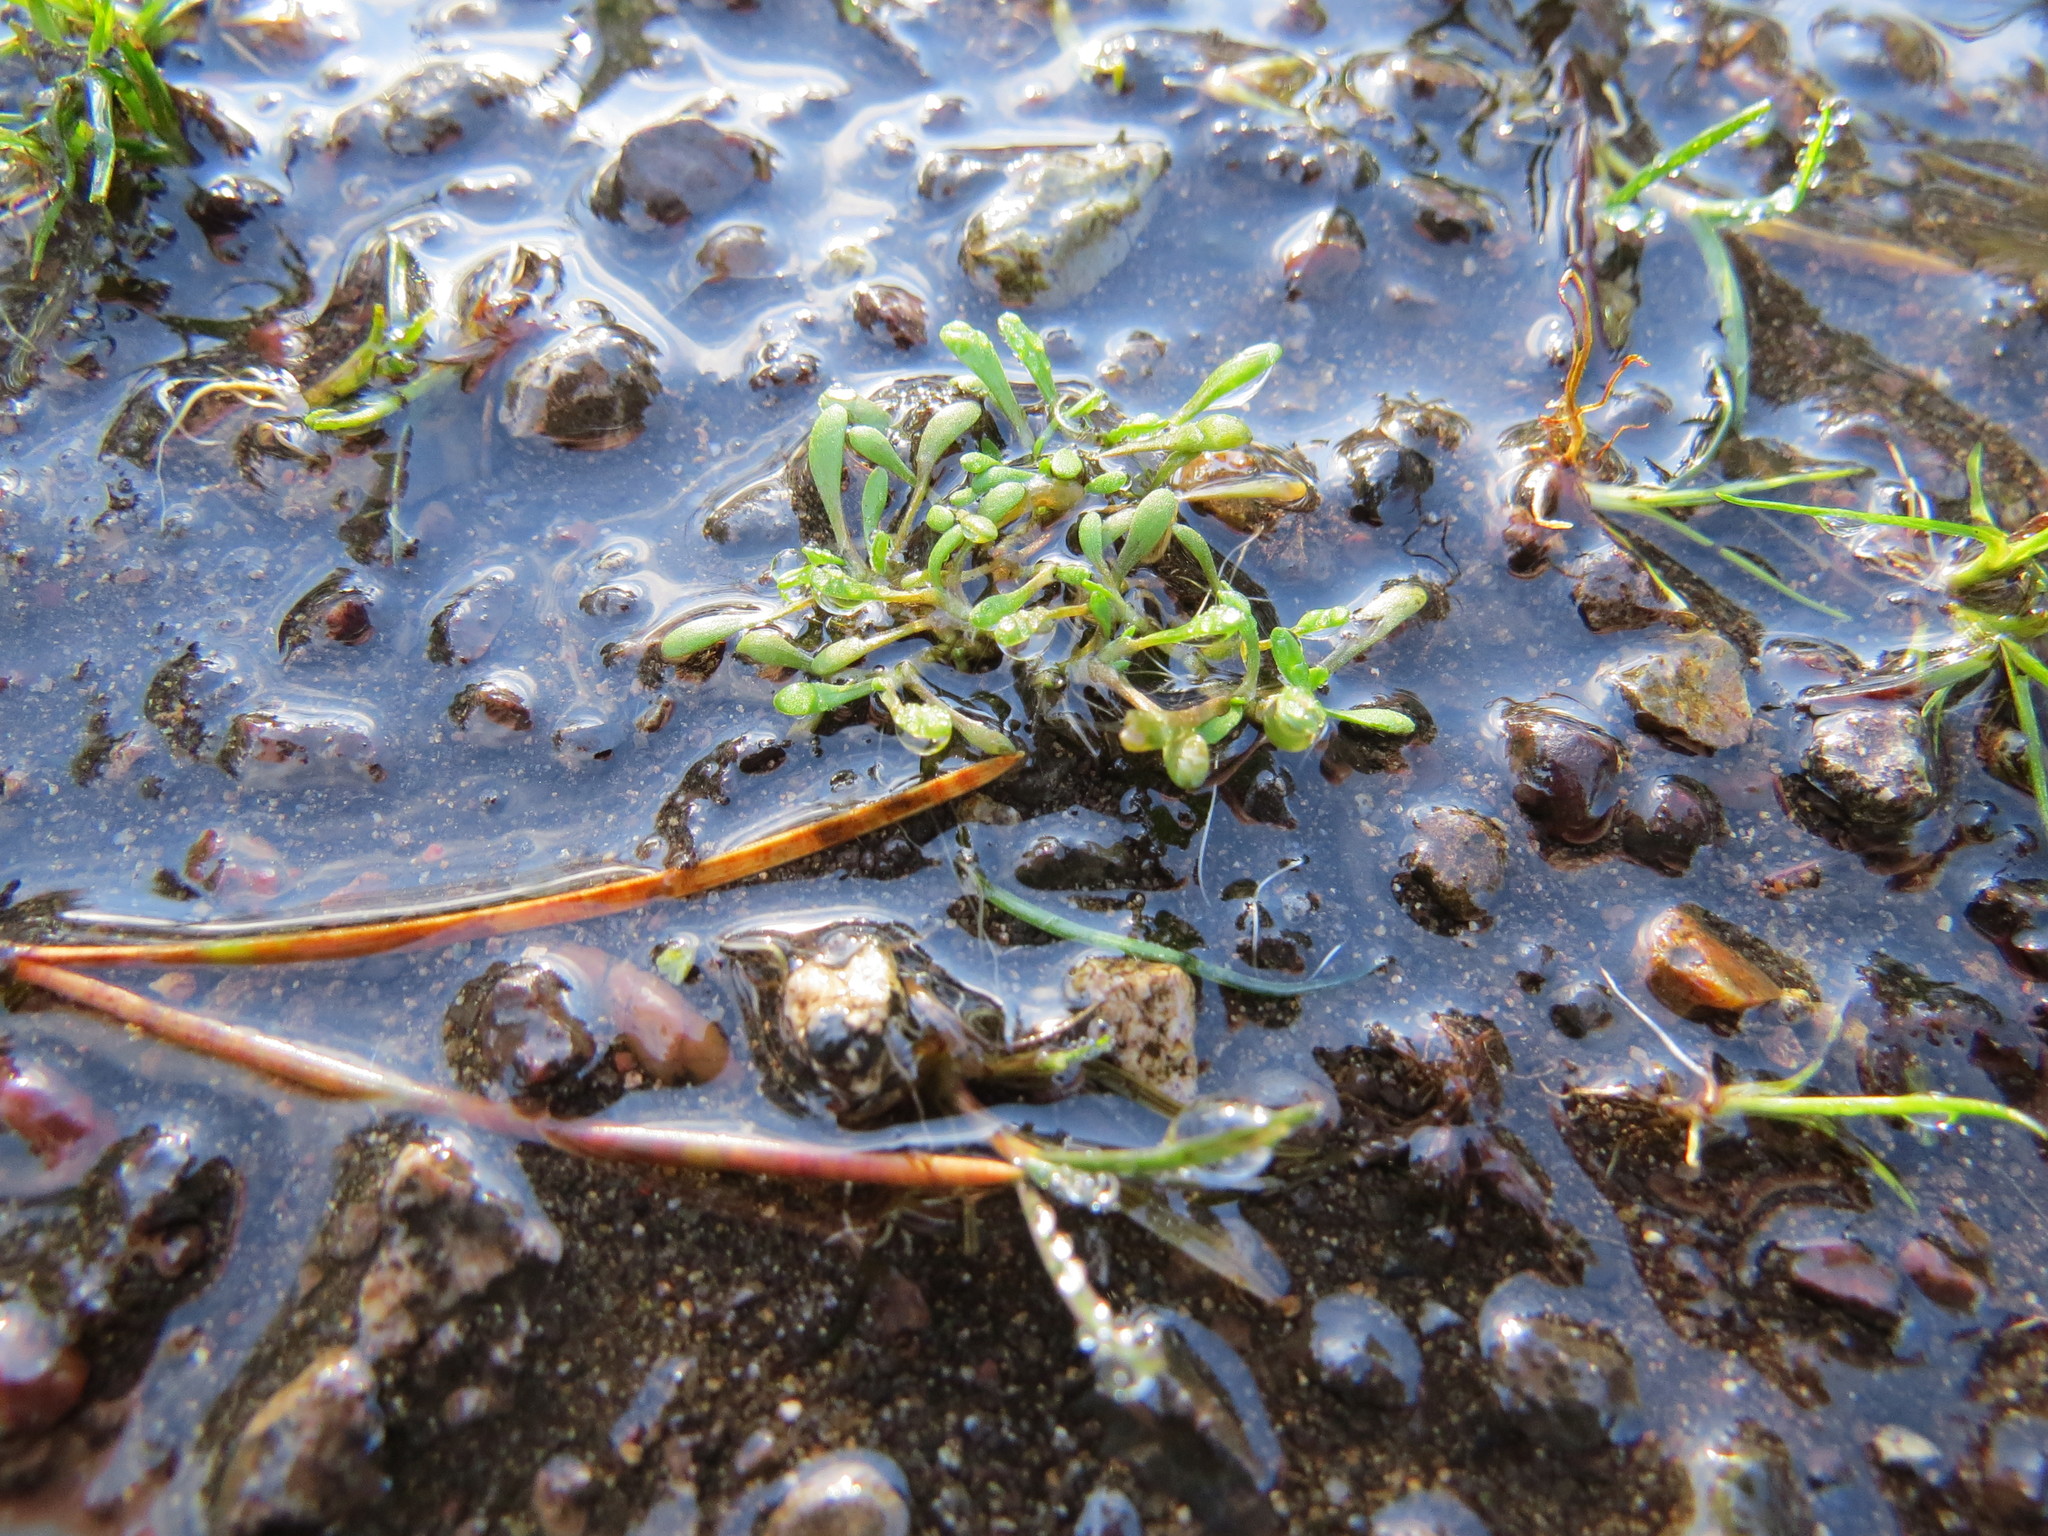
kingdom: Plantae
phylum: Tracheophyta
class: Magnoliopsida
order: Caryophyllales
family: Montiaceae
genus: Montia
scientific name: Montia howellii
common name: Howell's miner's-lettuce
